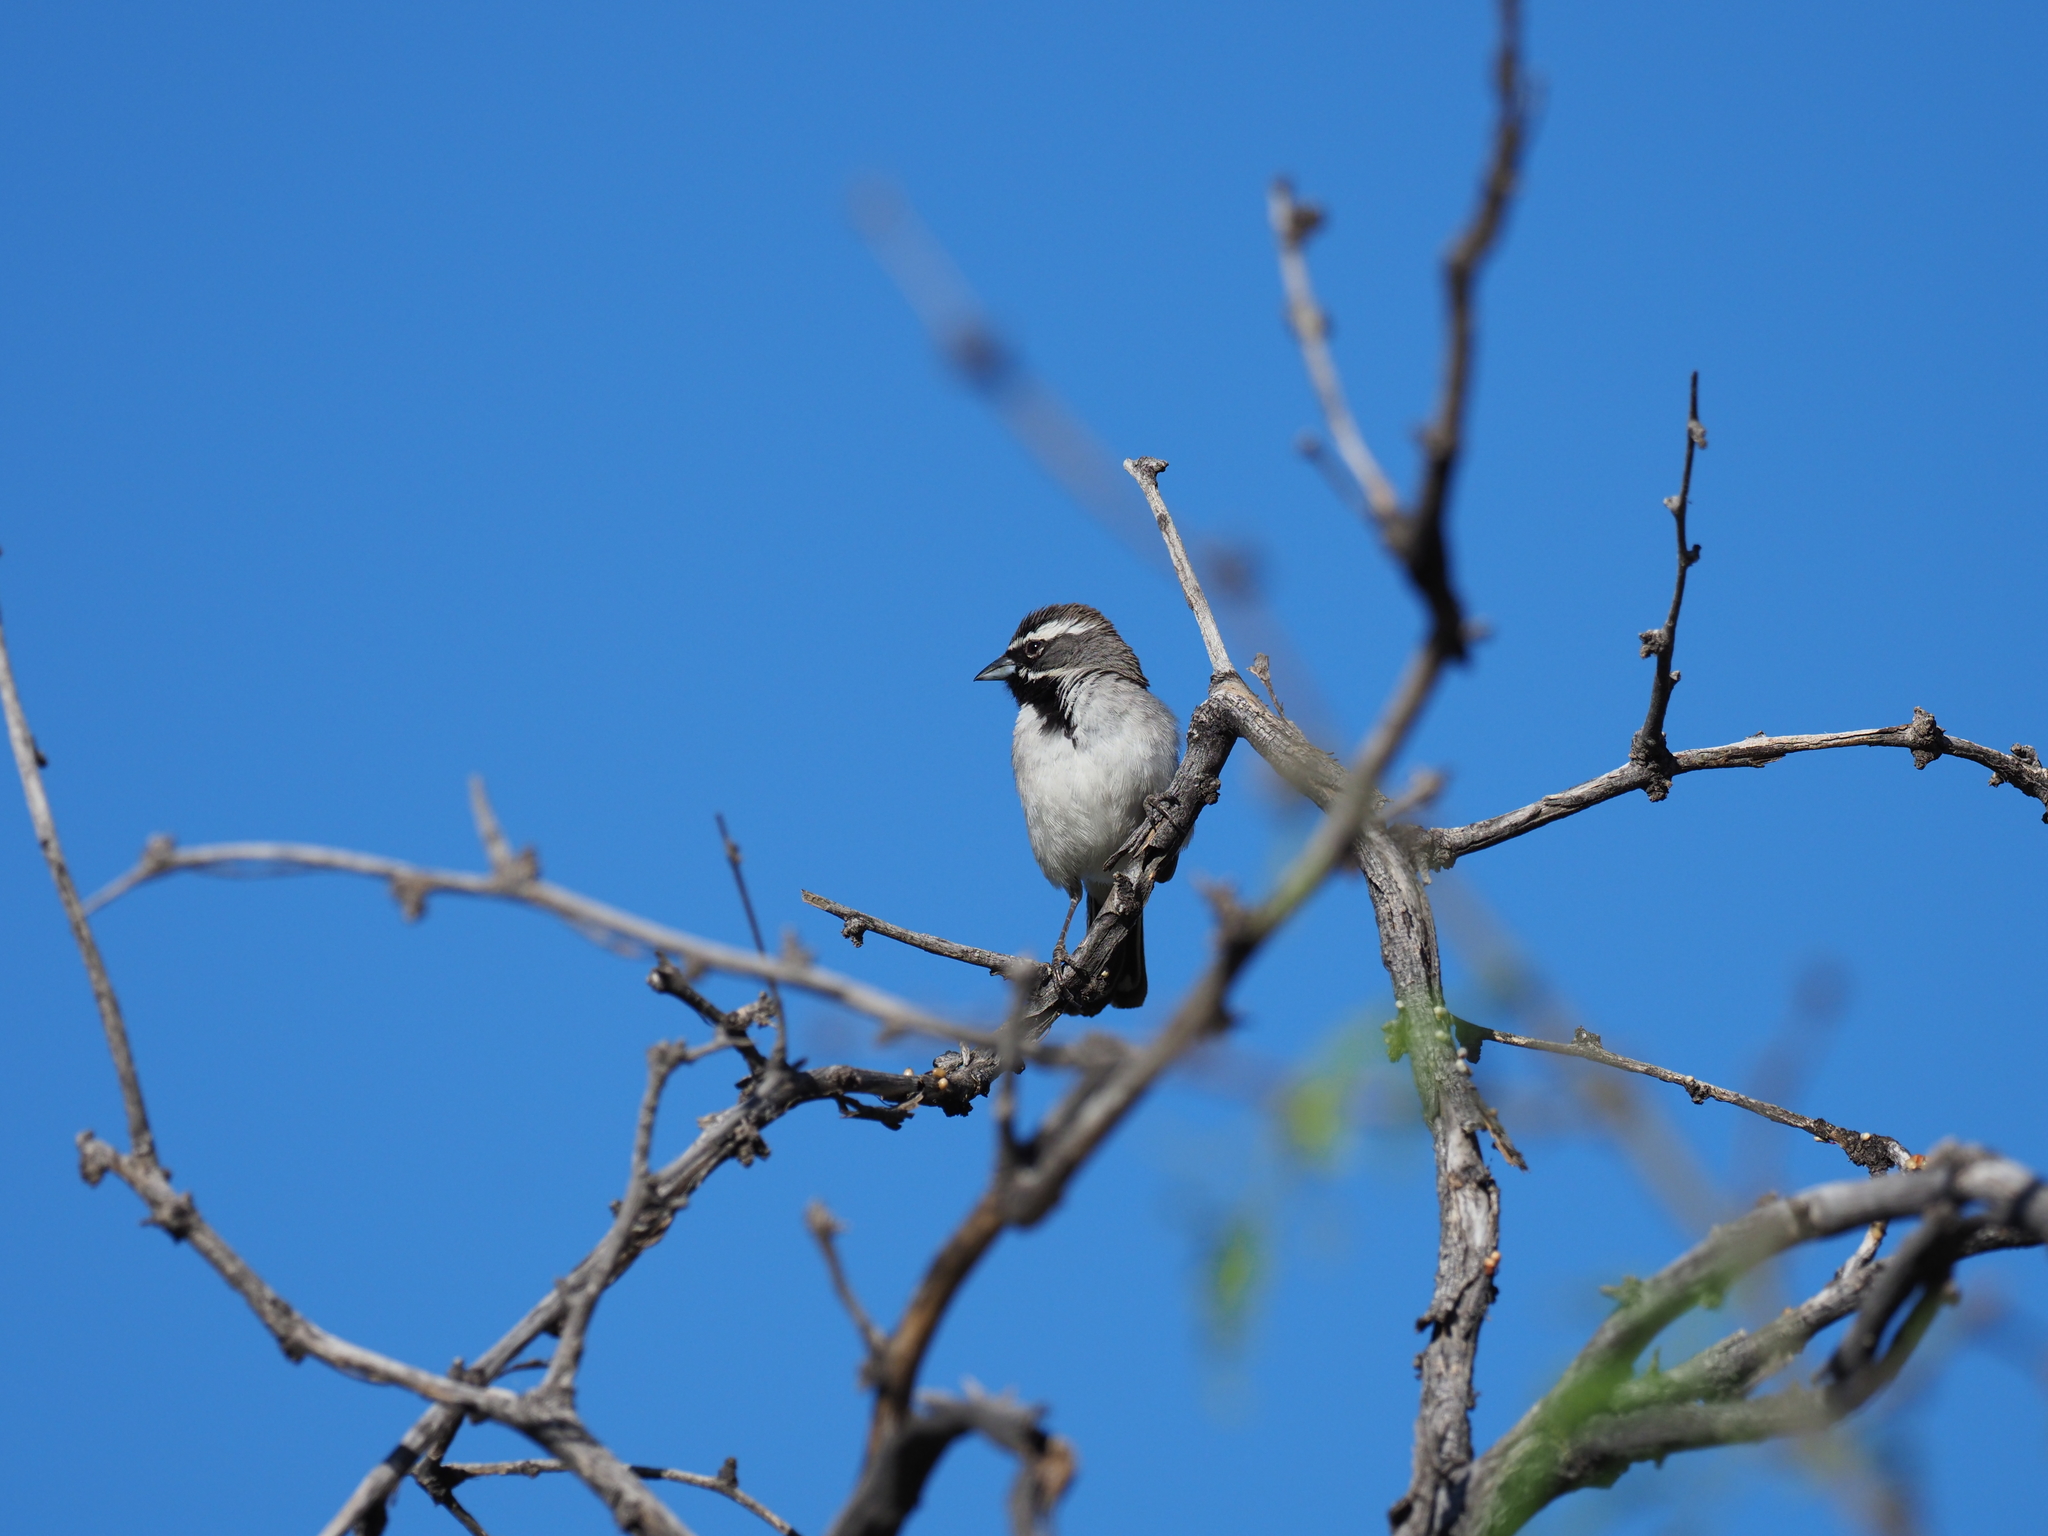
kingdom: Animalia
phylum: Chordata
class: Aves
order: Passeriformes
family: Passerellidae
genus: Amphispiza
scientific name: Amphispiza bilineata
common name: Black-throated sparrow
